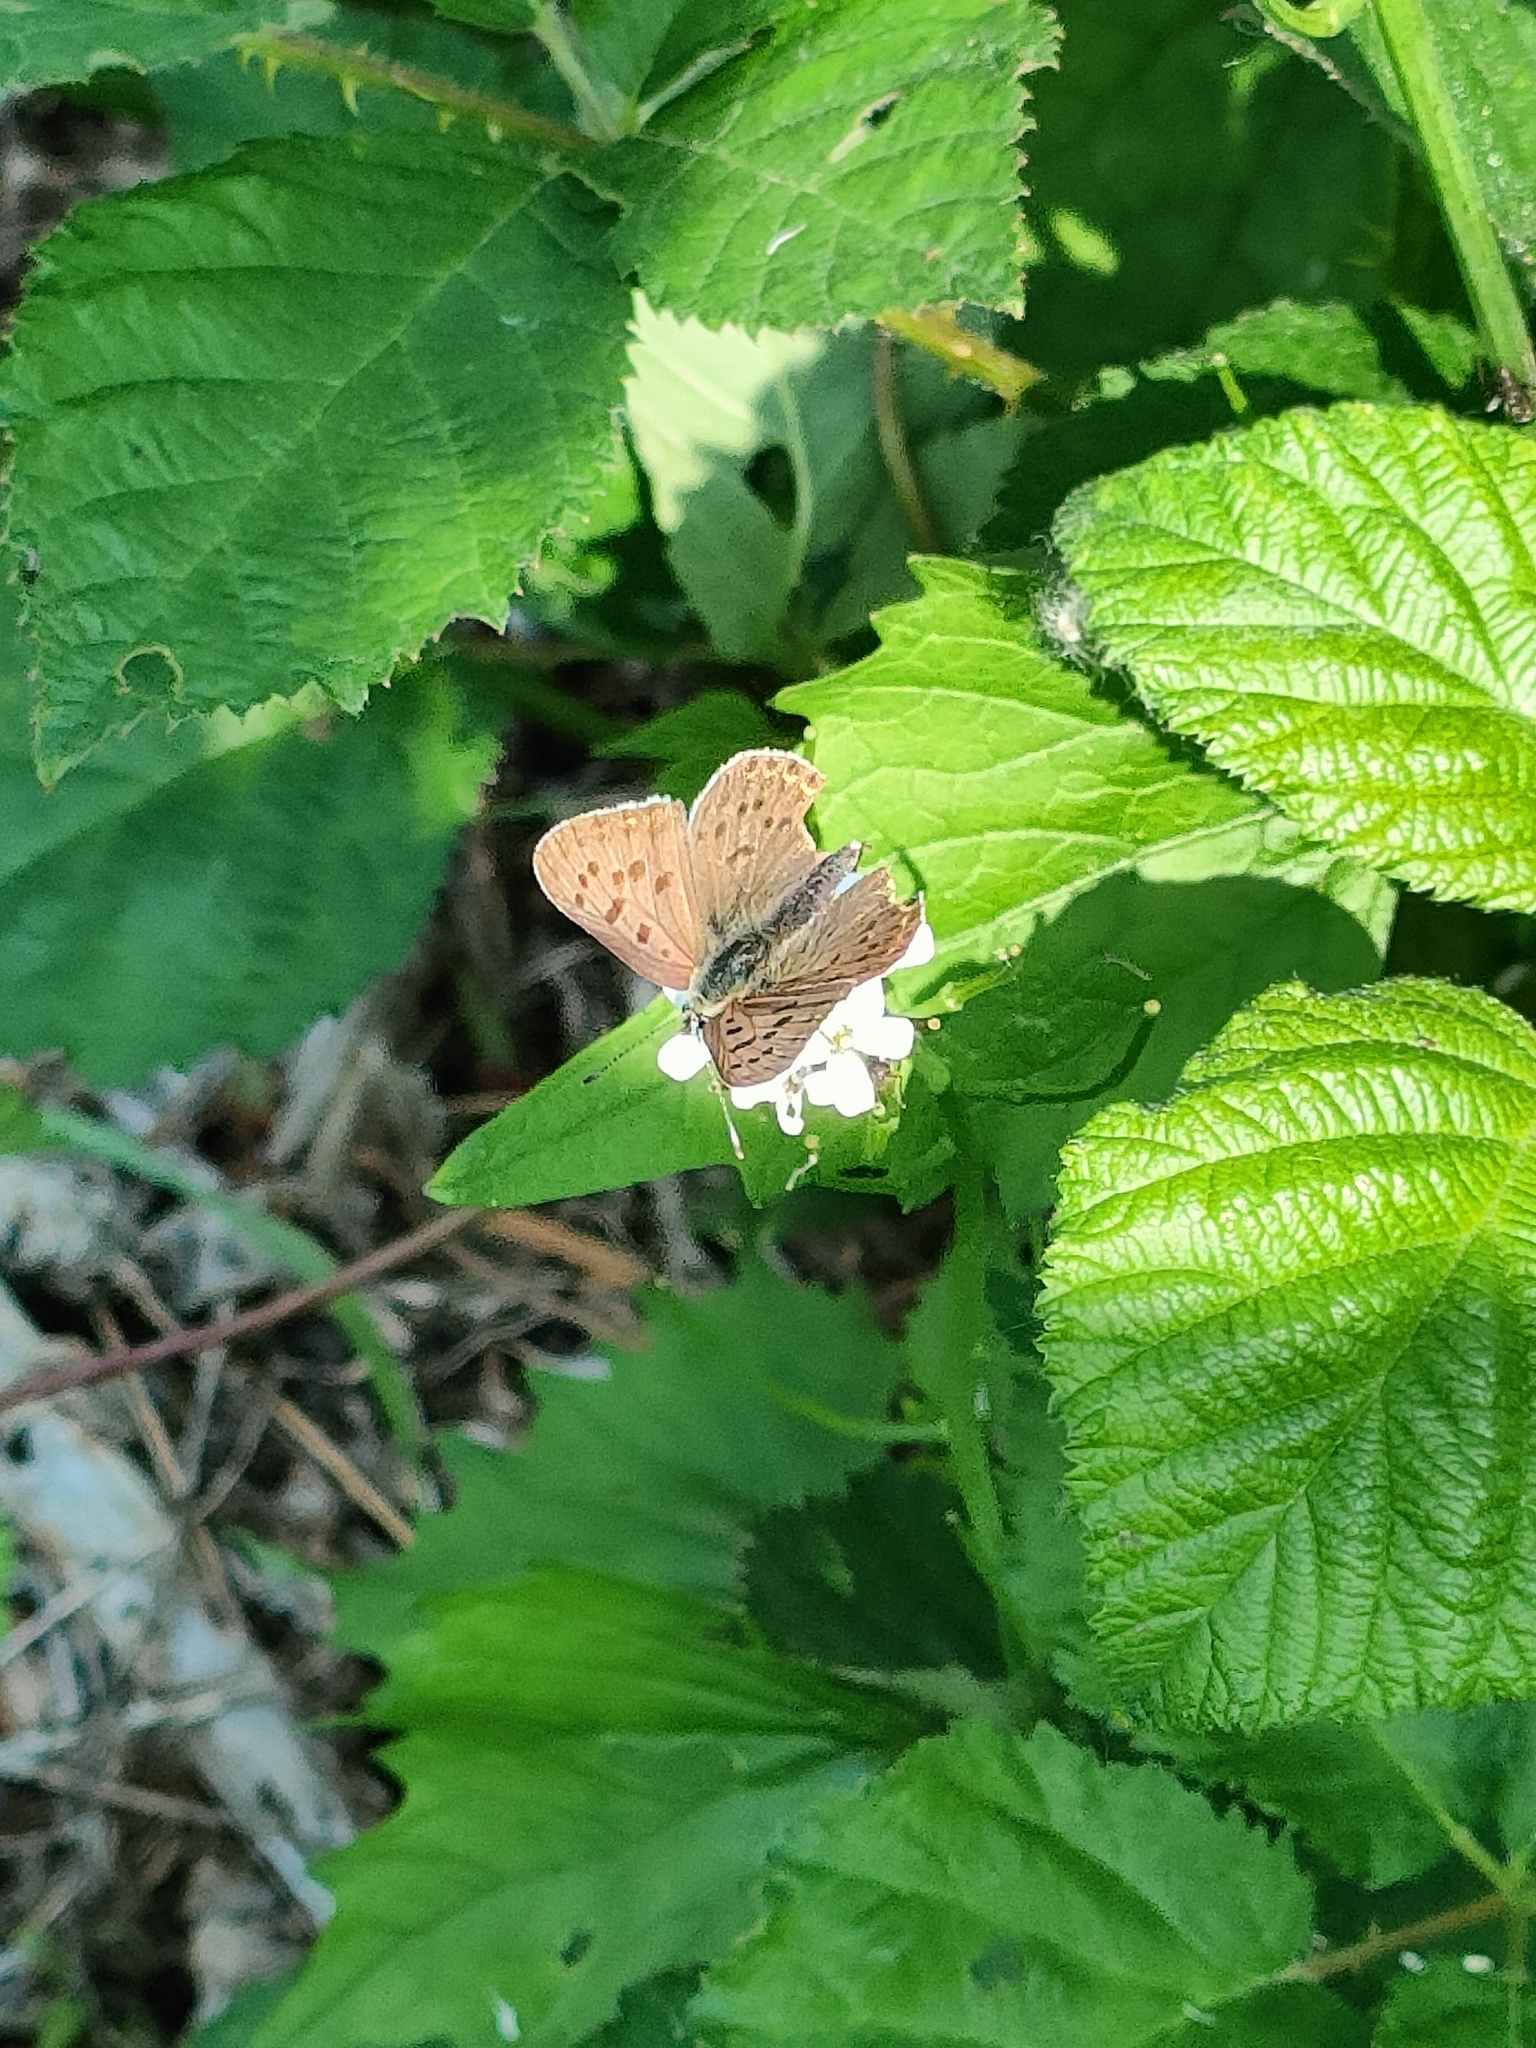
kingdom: Animalia
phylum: Arthropoda
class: Insecta
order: Lepidoptera
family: Lycaenidae
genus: Loweia
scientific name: Loweia tityrus
